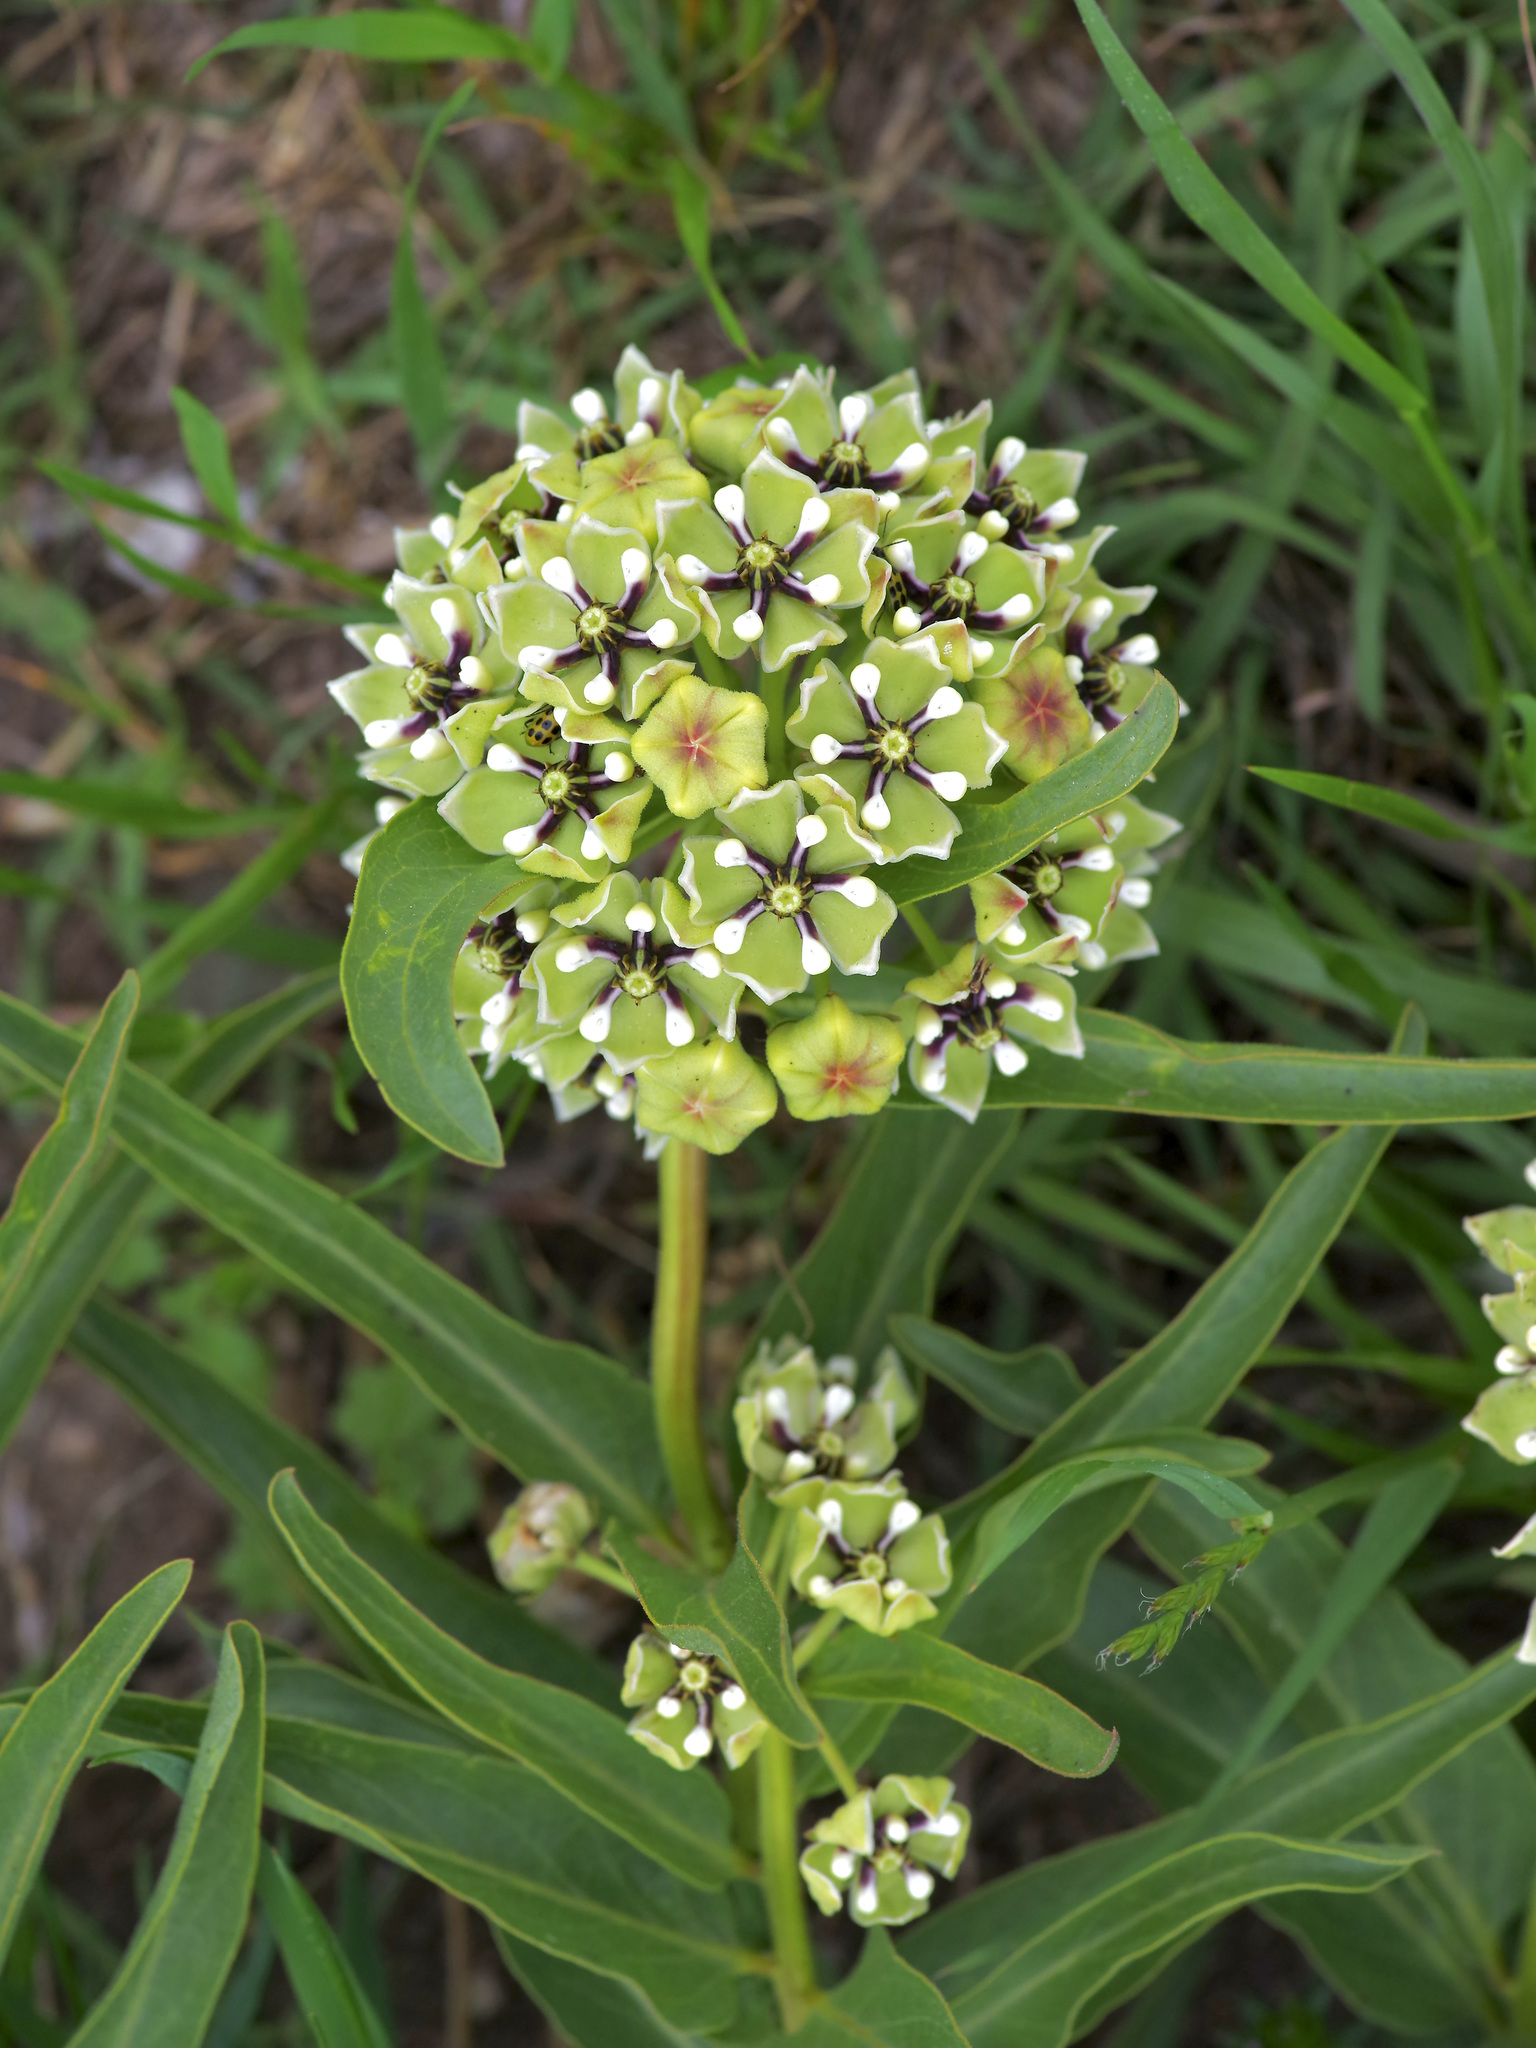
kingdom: Plantae
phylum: Tracheophyta
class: Magnoliopsida
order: Gentianales
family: Apocynaceae
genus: Asclepias
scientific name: Asclepias asperula
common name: Antelope horns
